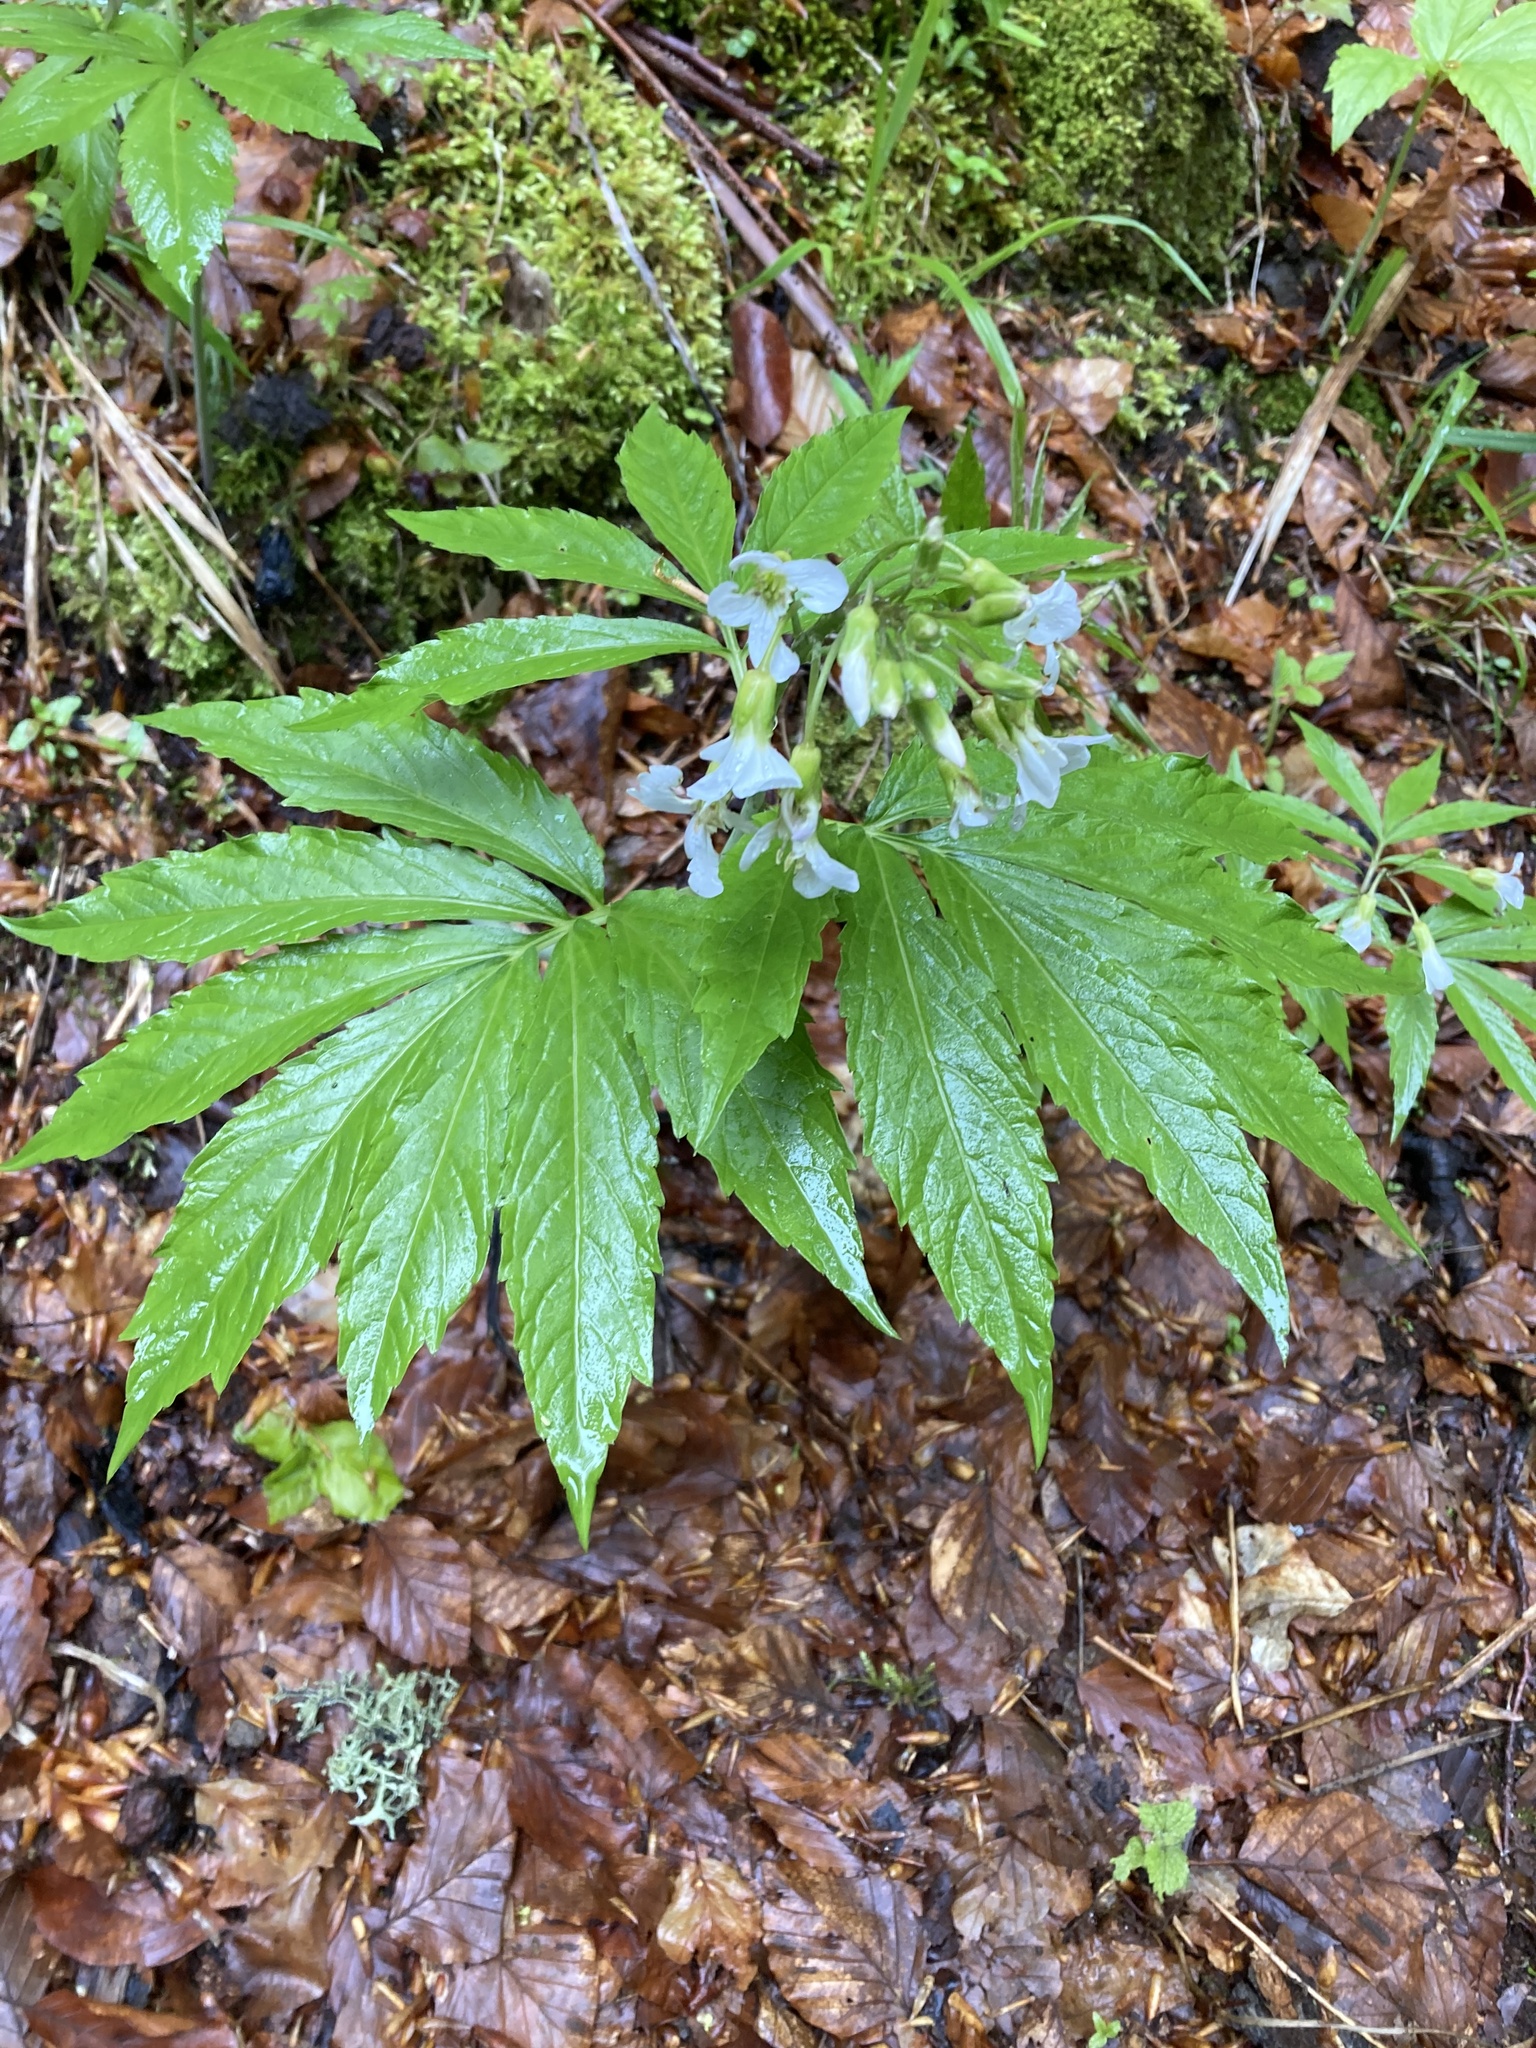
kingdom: Plantae
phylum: Tracheophyta
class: Magnoliopsida
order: Brassicales
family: Brassicaceae
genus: Cardamine
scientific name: Cardamine heptaphylla
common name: Pinnate coralroot
